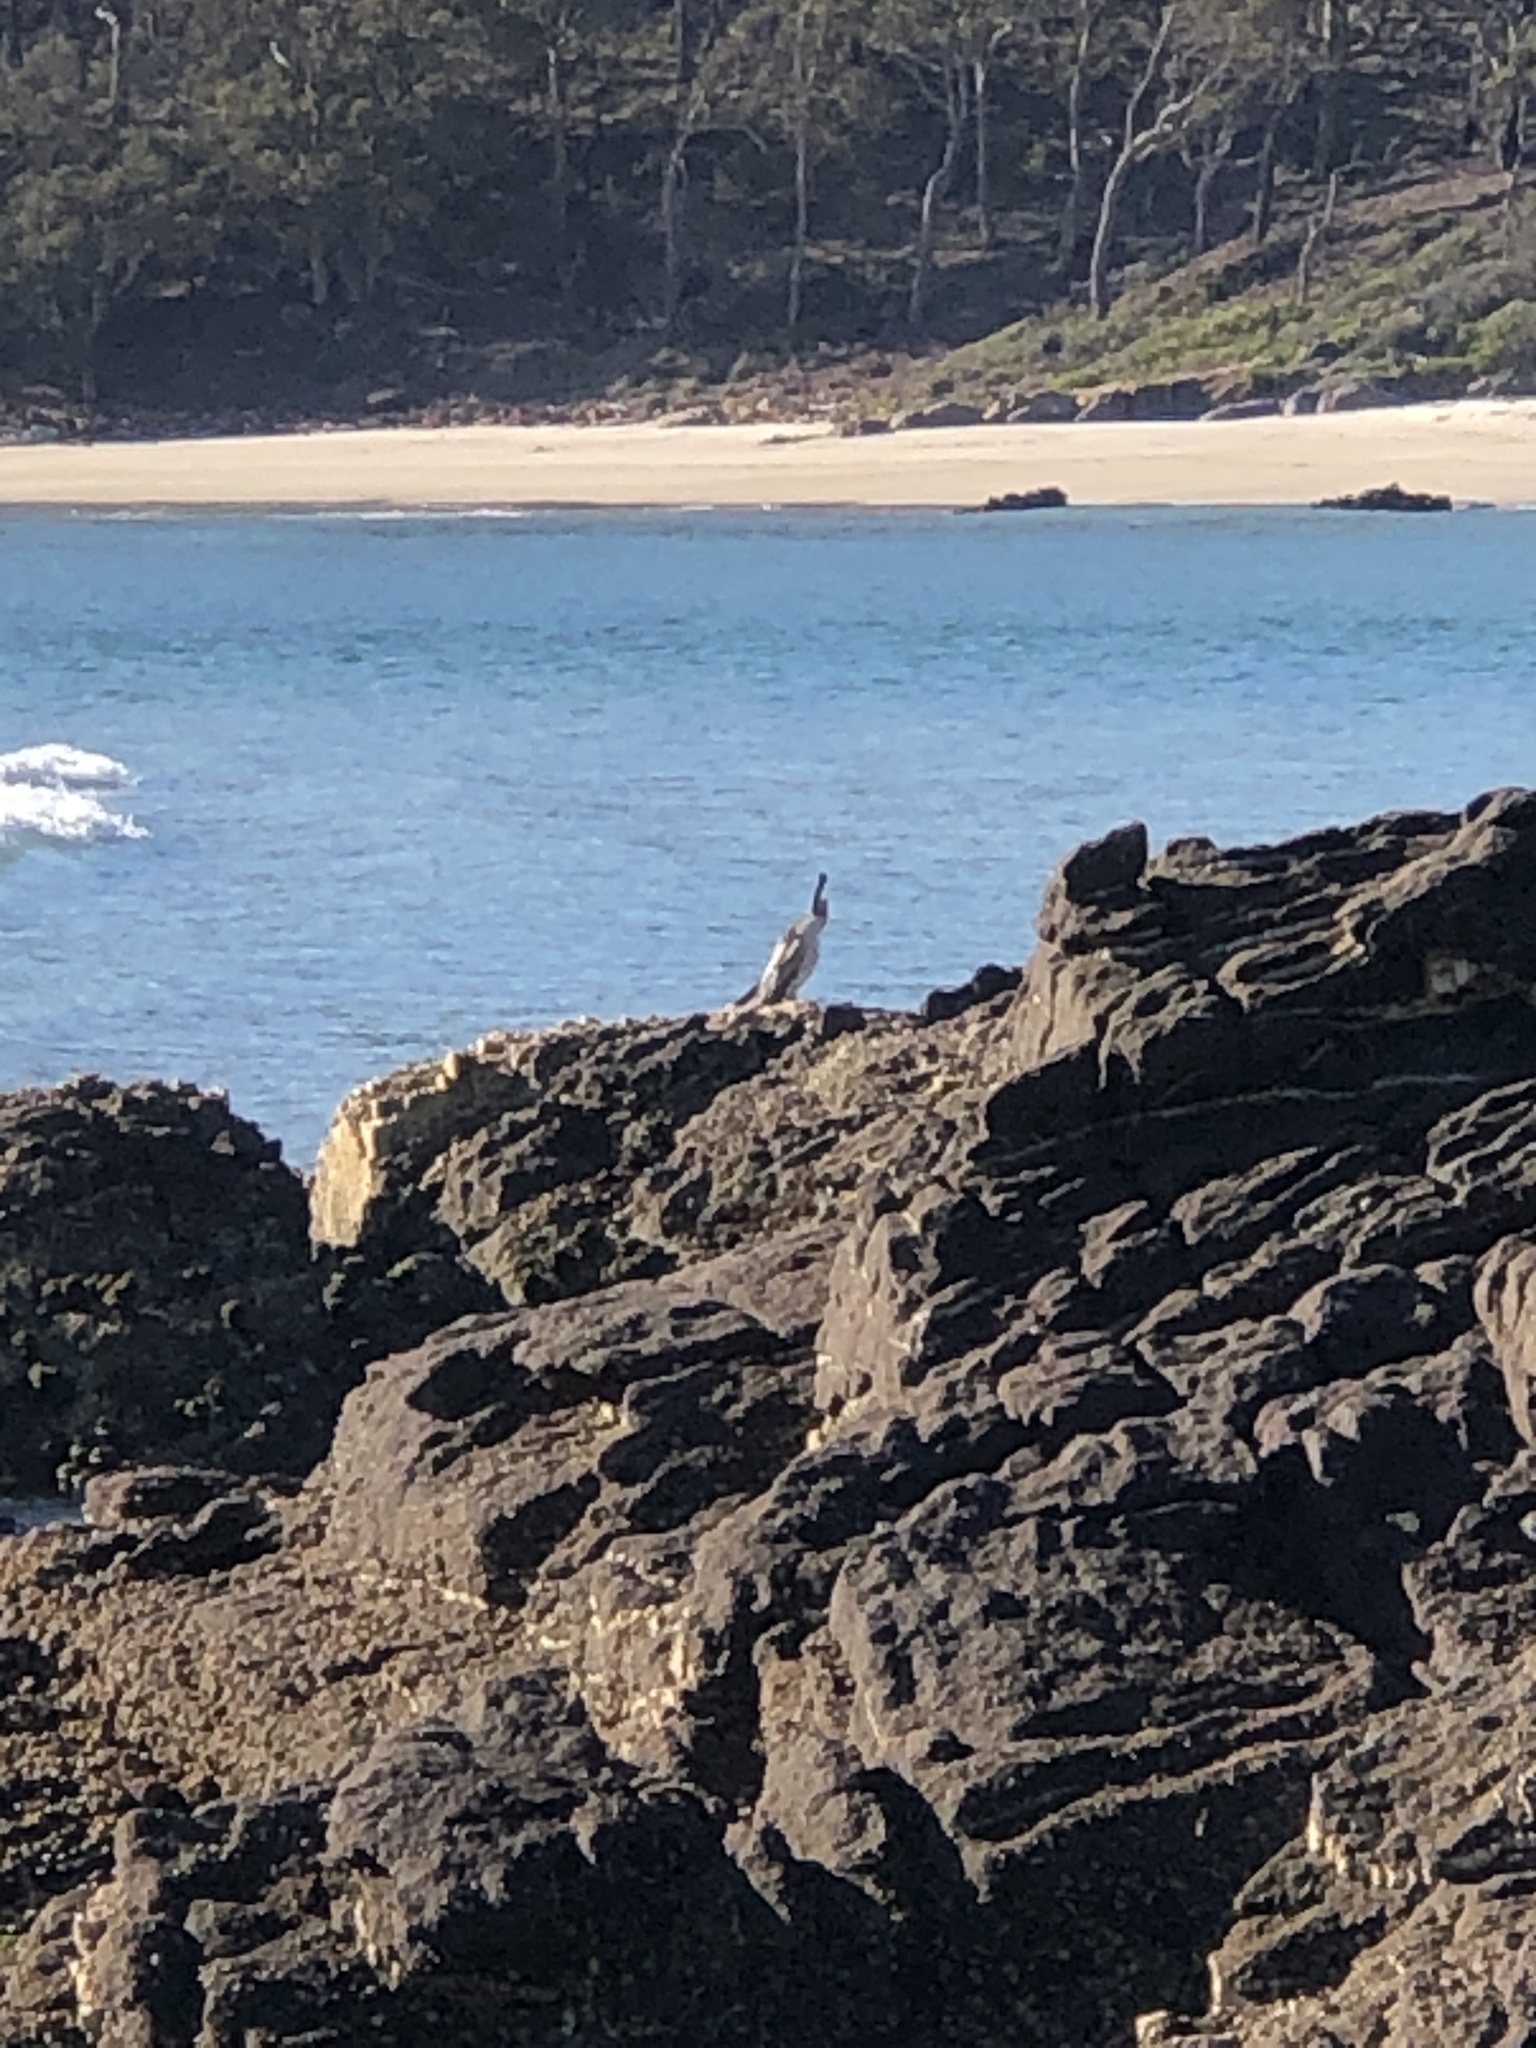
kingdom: Animalia
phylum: Chordata
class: Aves
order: Suliformes
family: Anhingidae
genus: Anhinga
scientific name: Anhinga novaehollandiae
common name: Australasian darter
